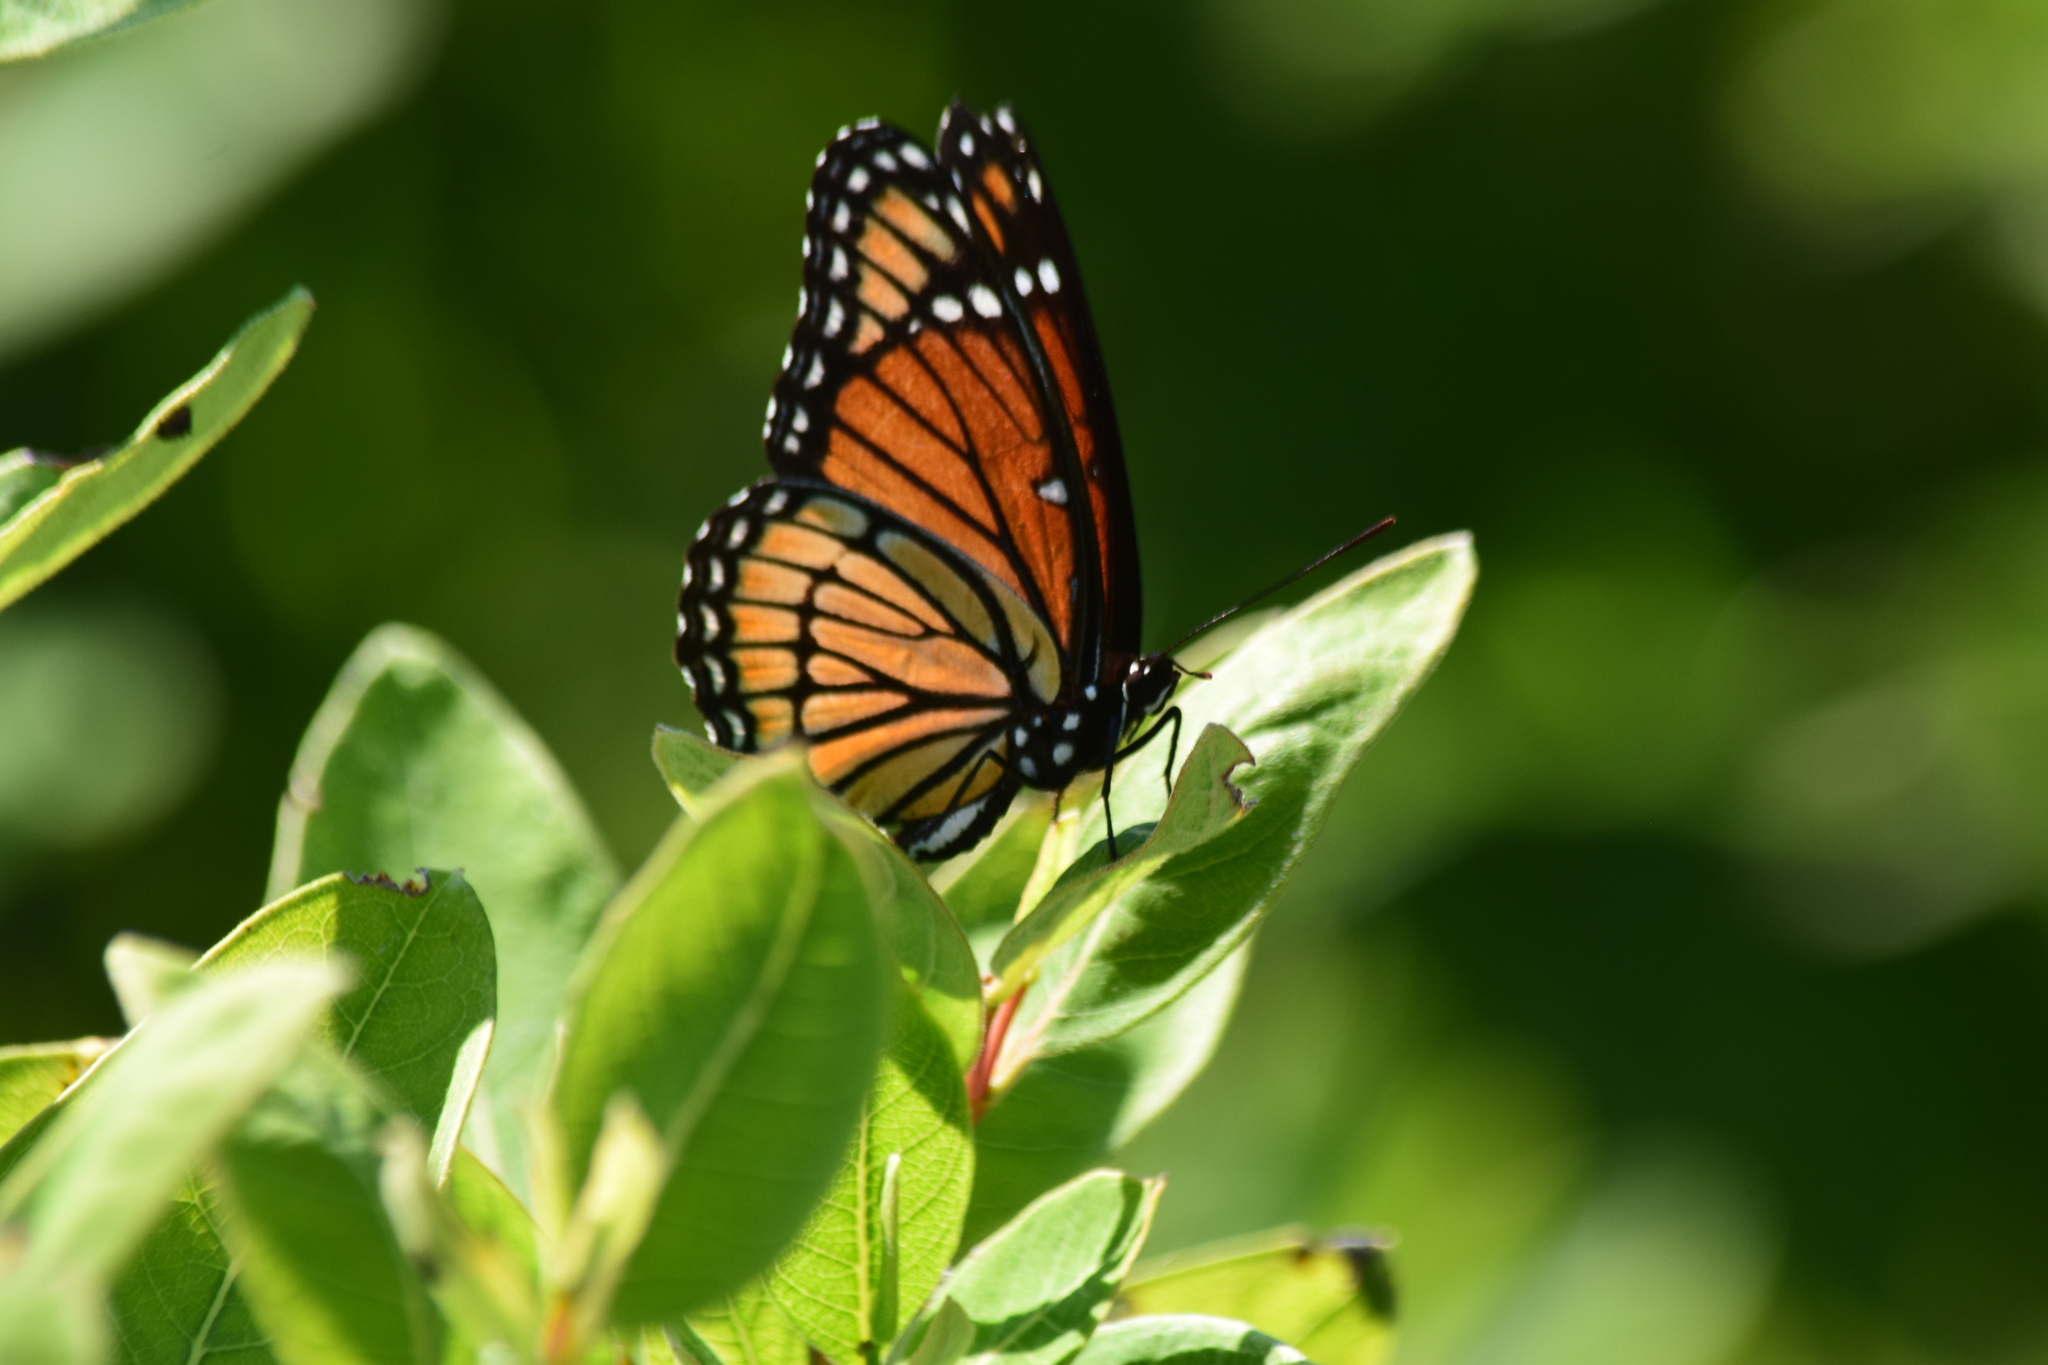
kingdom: Animalia
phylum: Arthropoda
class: Insecta
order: Lepidoptera
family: Nymphalidae
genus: Limenitis
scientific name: Limenitis archippus
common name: Viceroy
